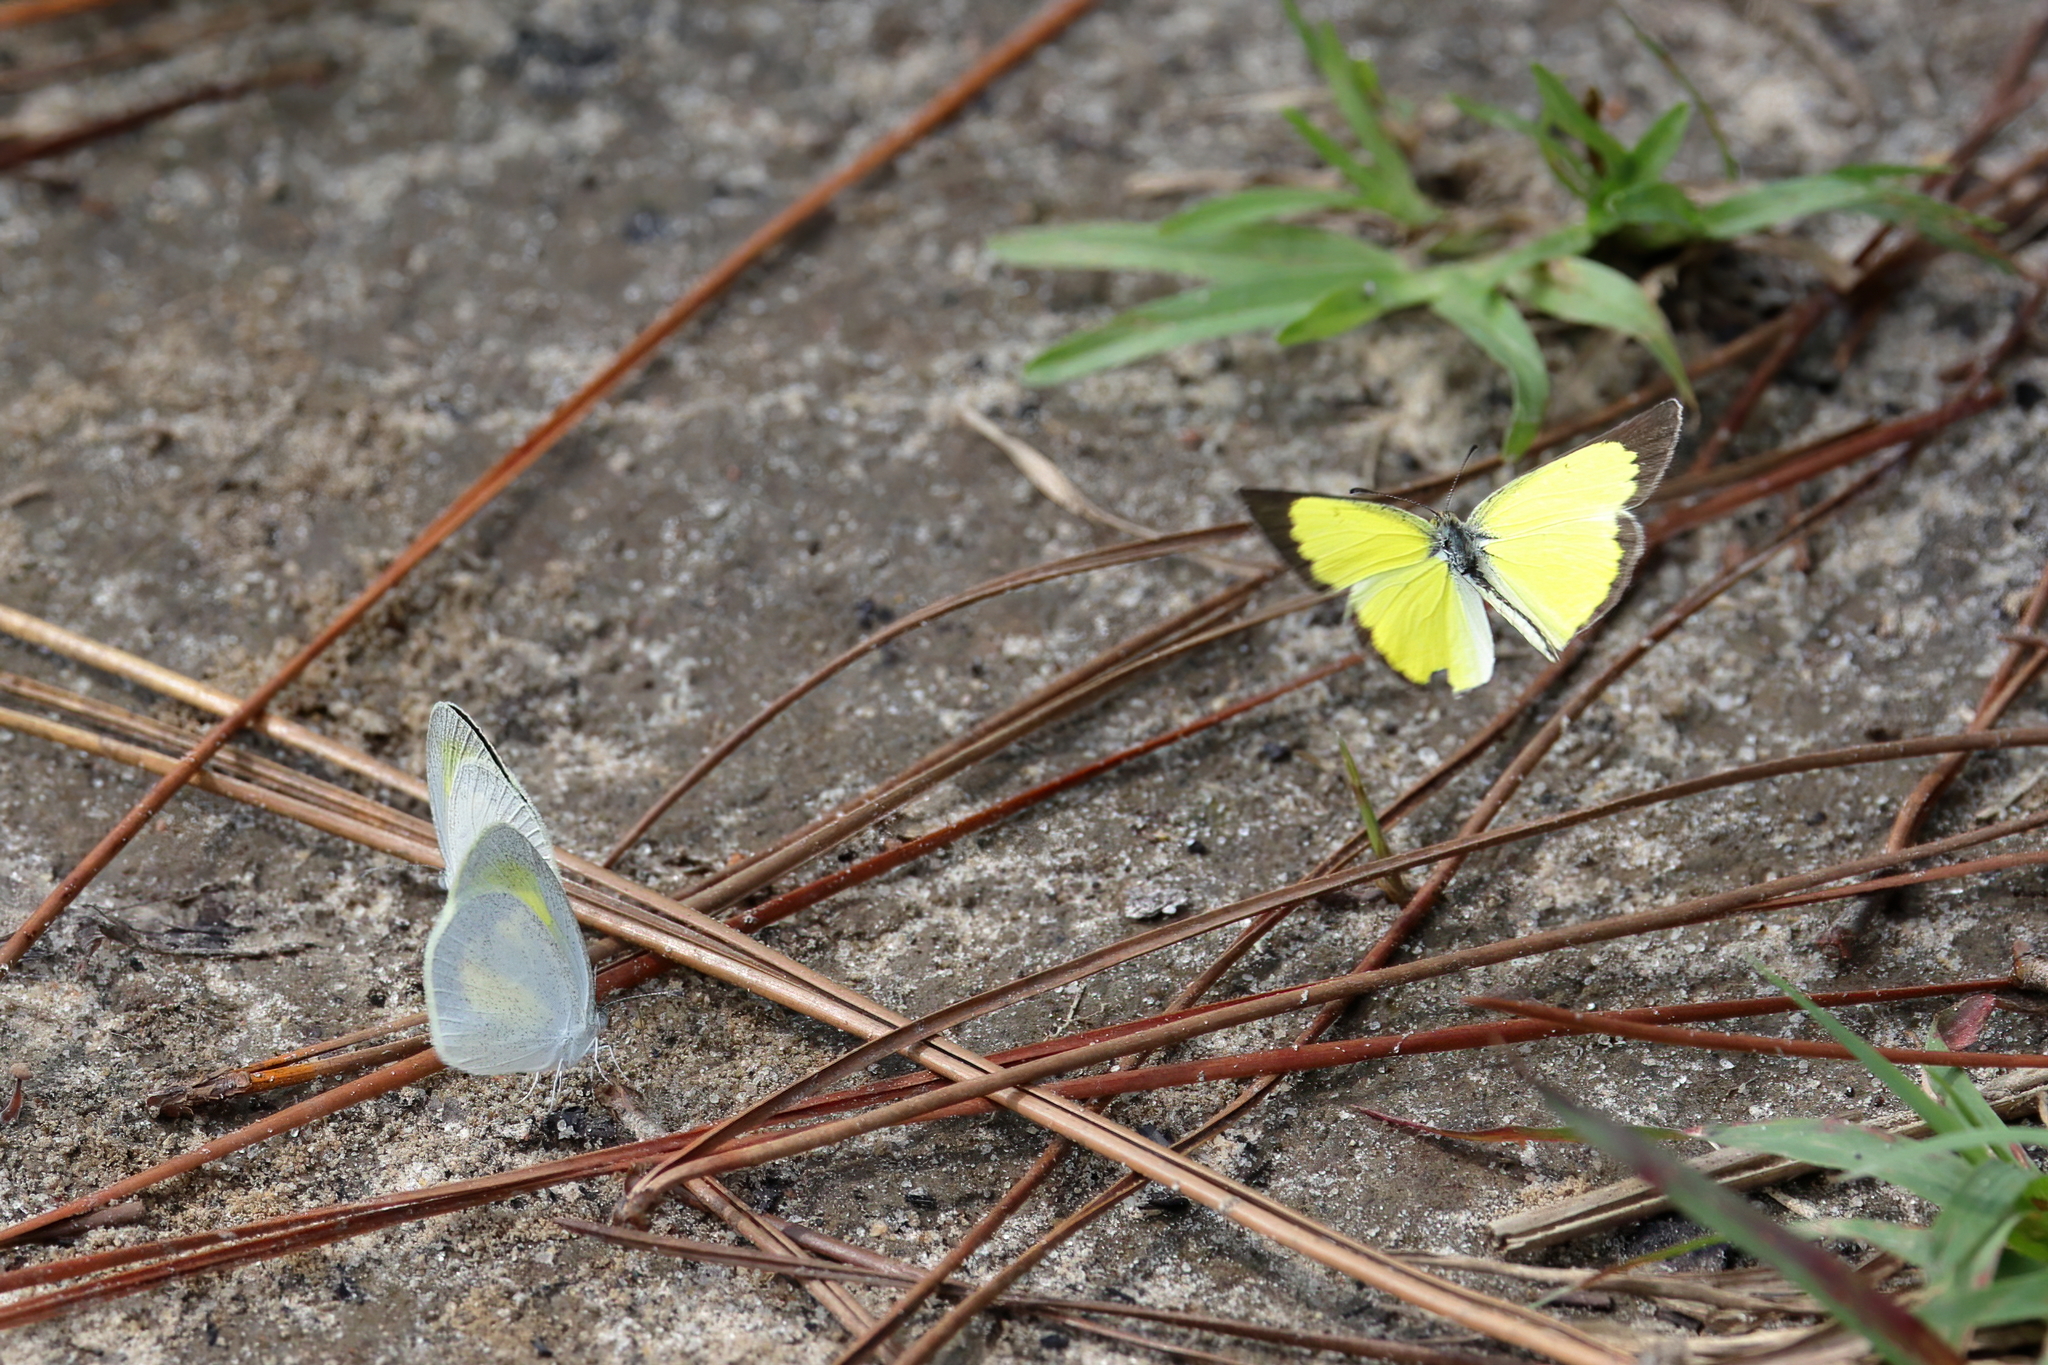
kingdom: Animalia
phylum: Arthropoda
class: Insecta
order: Lepidoptera
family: Pieridae
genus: Pyrisitia
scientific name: Pyrisitia lisa
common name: Little yellow
